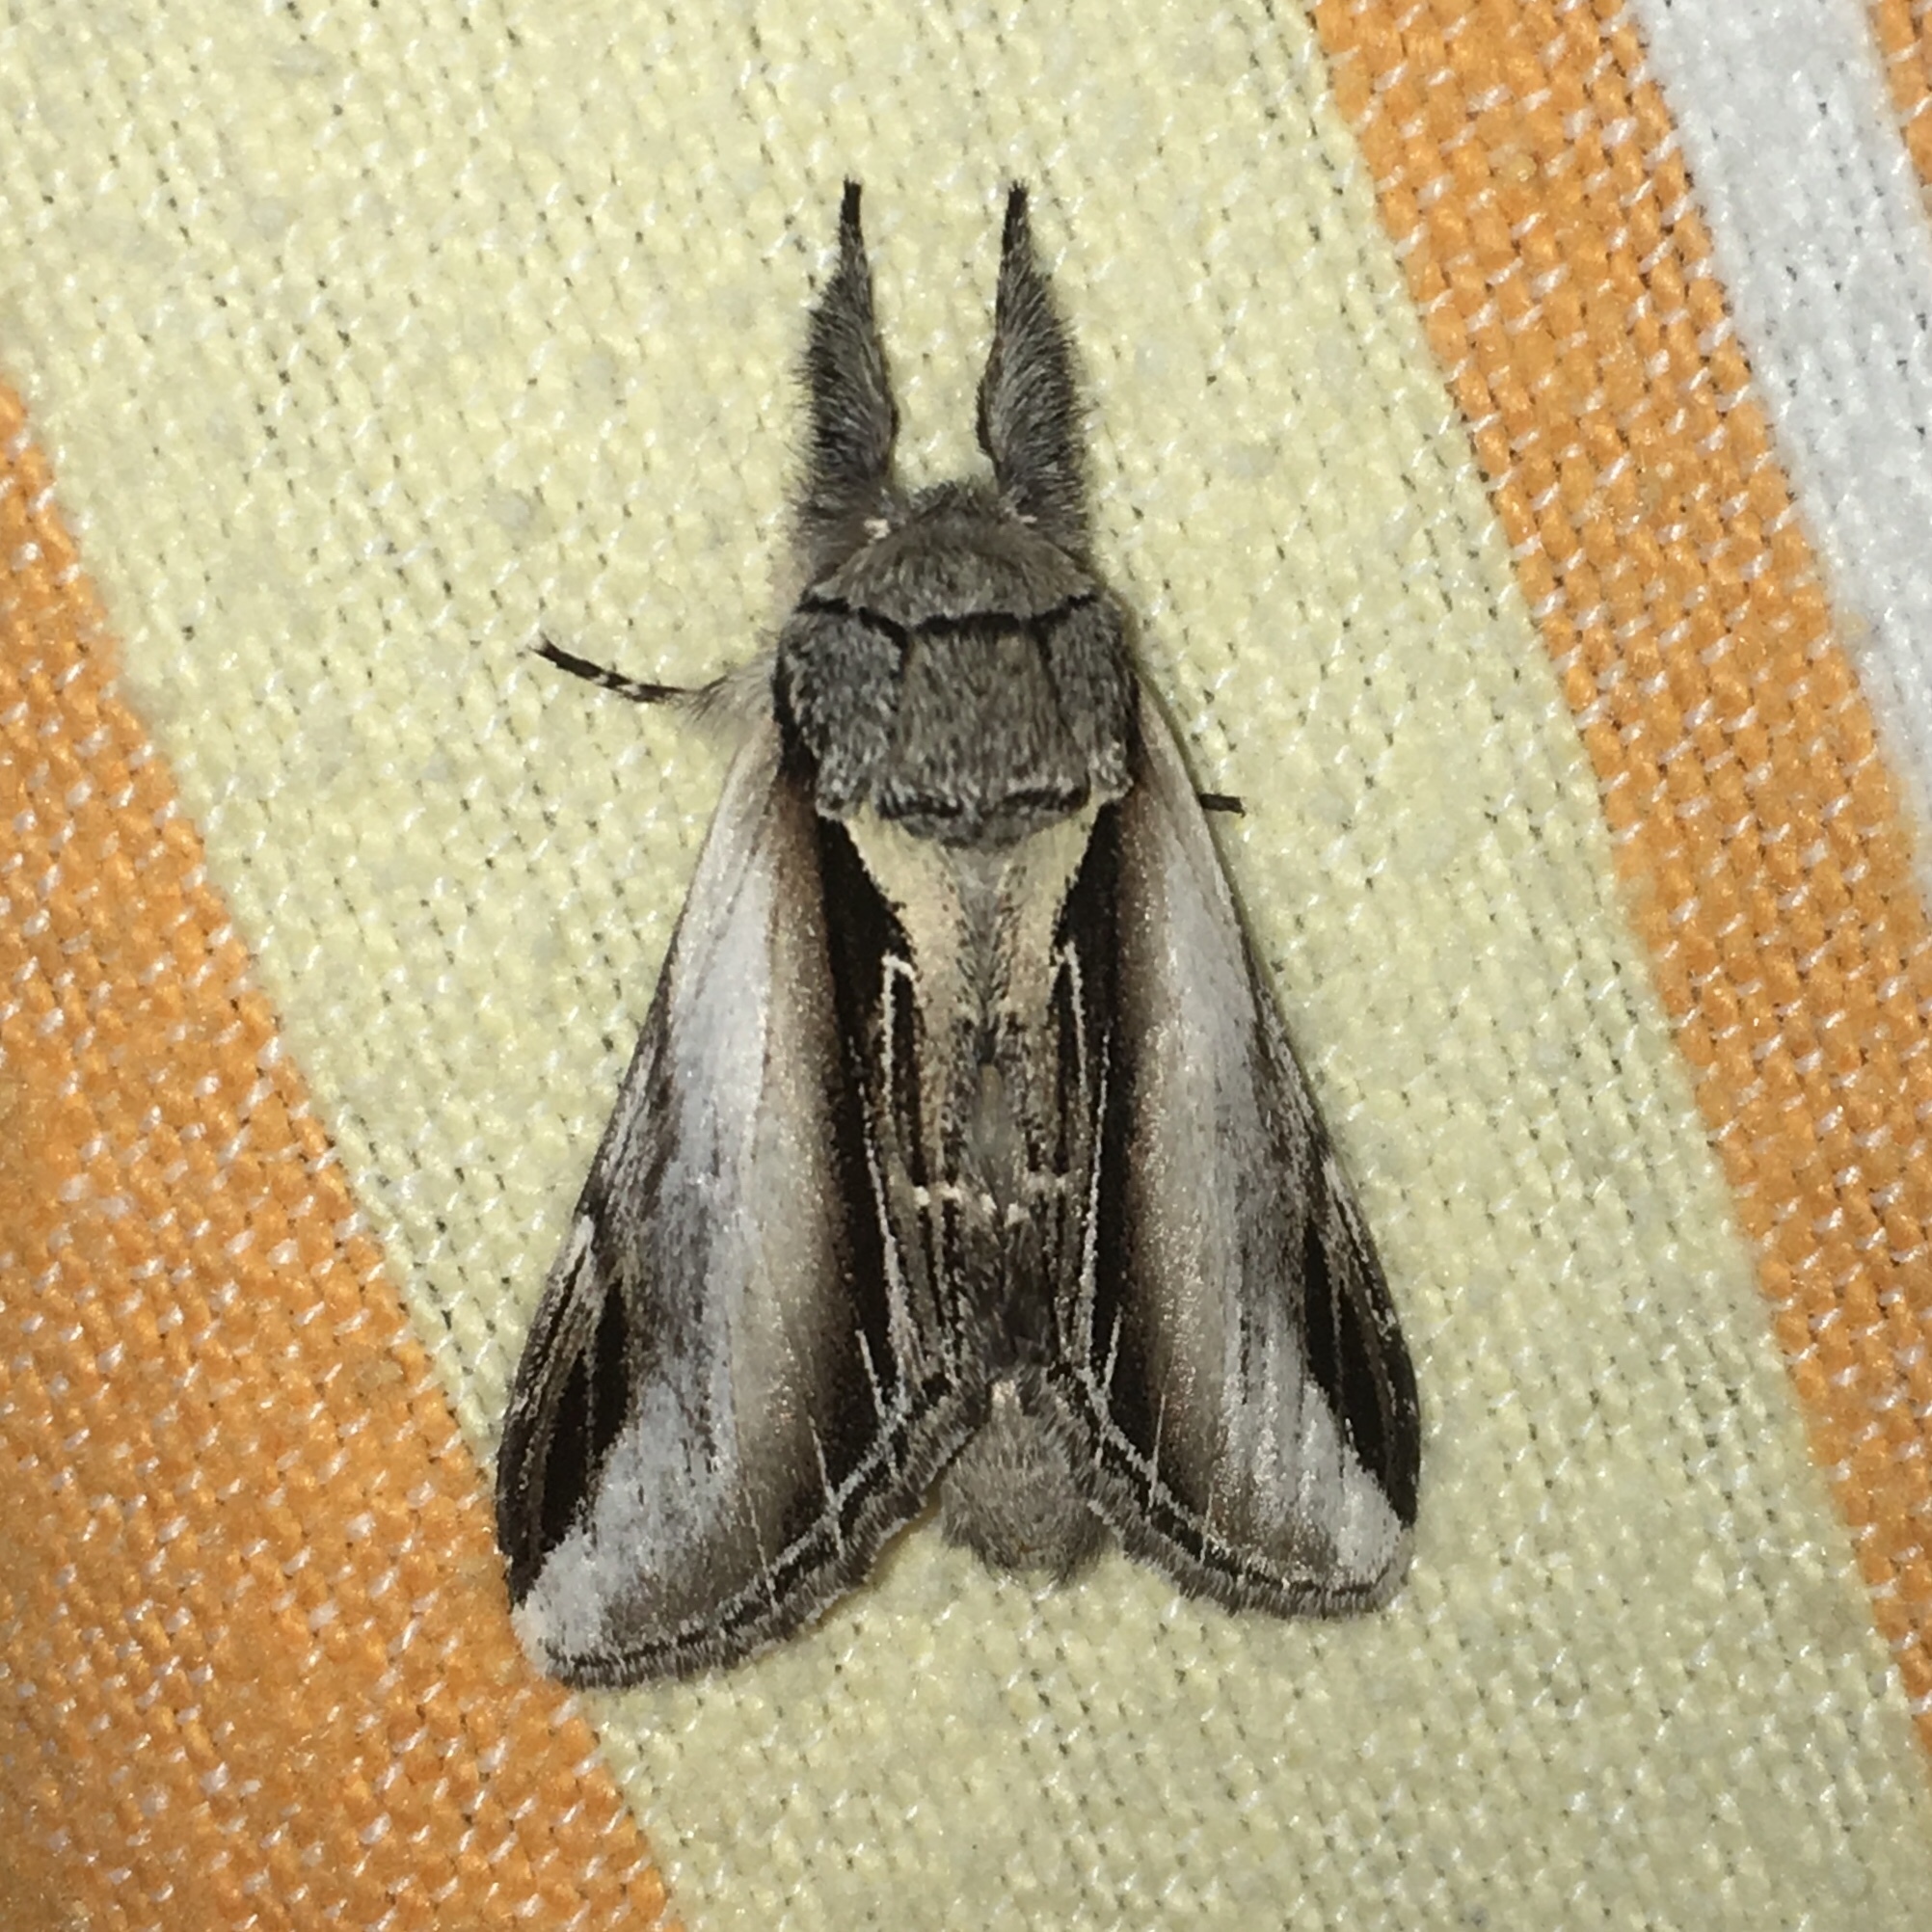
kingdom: Animalia
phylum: Arthropoda
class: Insecta
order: Lepidoptera
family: Notodontidae
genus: Pheosia
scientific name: Pheosia rimosa
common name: Black-rimmed prominent
